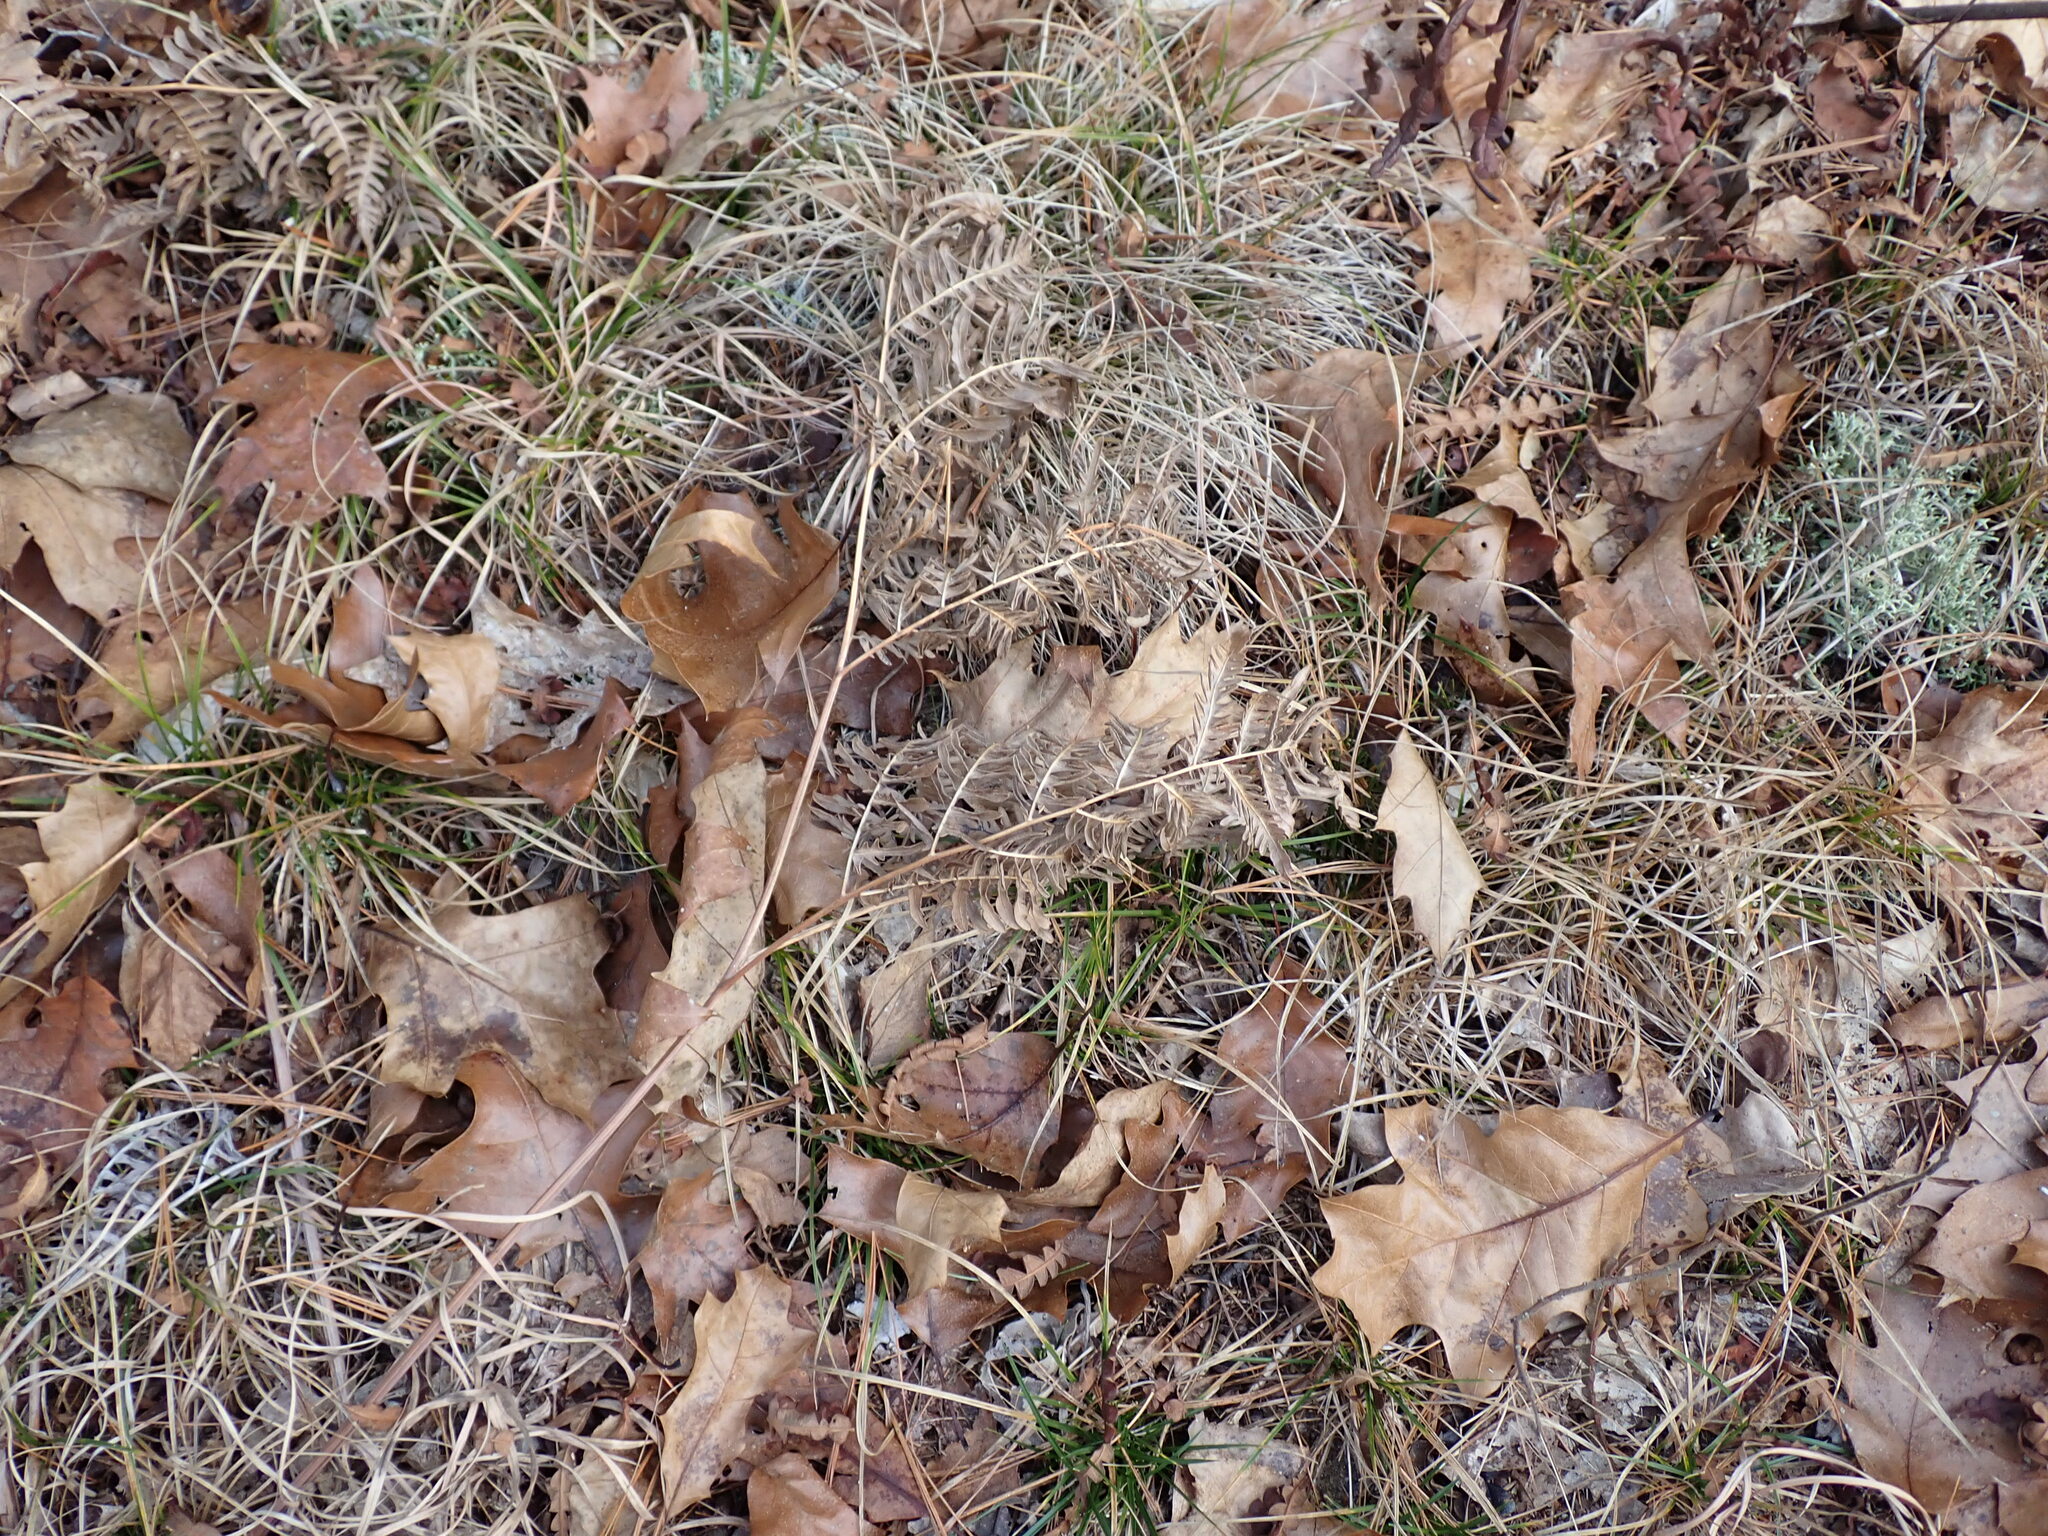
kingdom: Plantae
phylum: Tracheophyta
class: Polypodiopsida
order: Polypodiales
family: Dennstaedtiaceae
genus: Pteridium
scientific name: Pteridium aquilinum
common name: Bracken
